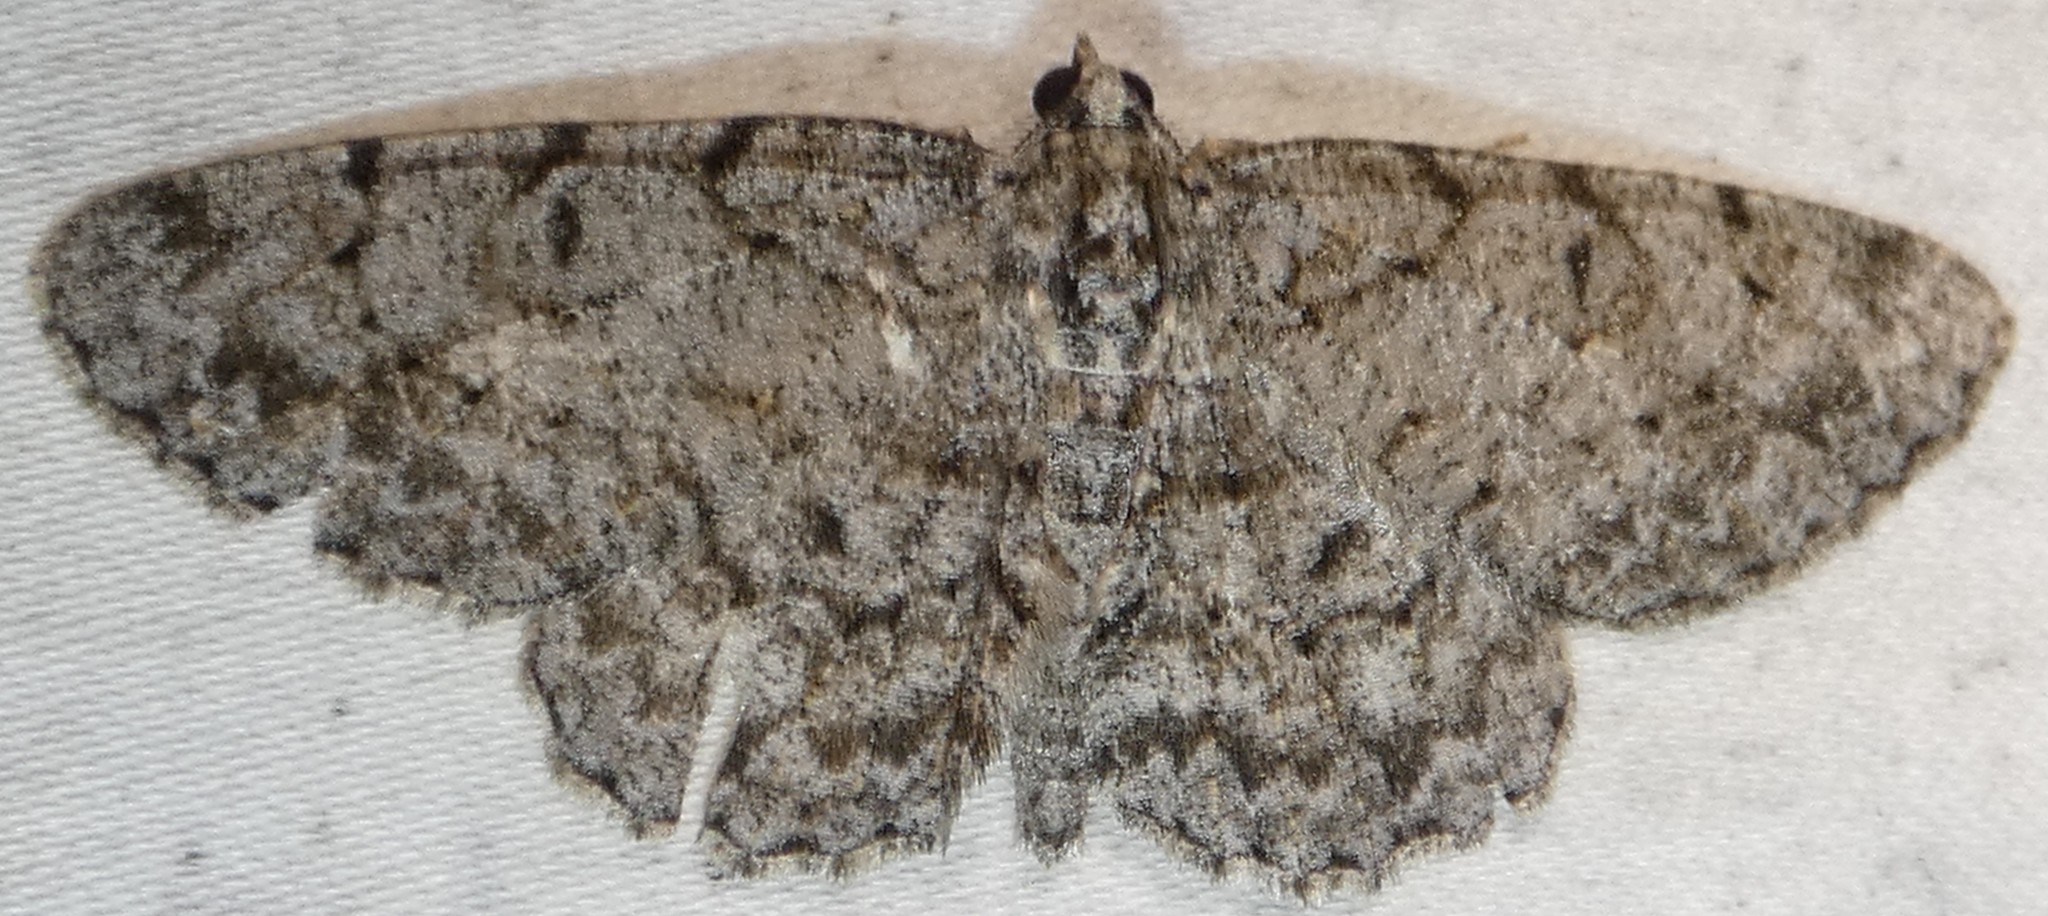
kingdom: Animalia
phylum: Arthropoda
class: Insecta
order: Lepidoptera
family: Geometridae
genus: Protoboarmia
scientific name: Protoboarmia porcelaria
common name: Porcelain gray
